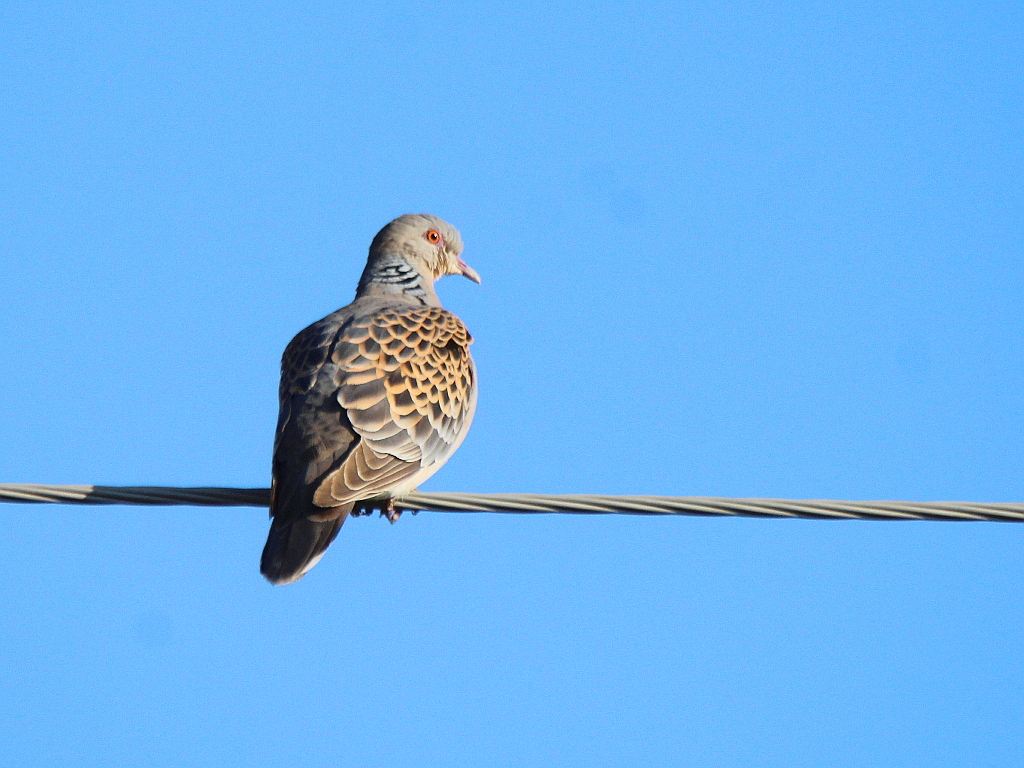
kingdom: Animalia
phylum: Chordata
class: Aves
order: Columbiformes
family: Columbidae
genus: Streptopelia
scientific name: Streptopelia orientalis
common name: Oriental turtle dove
